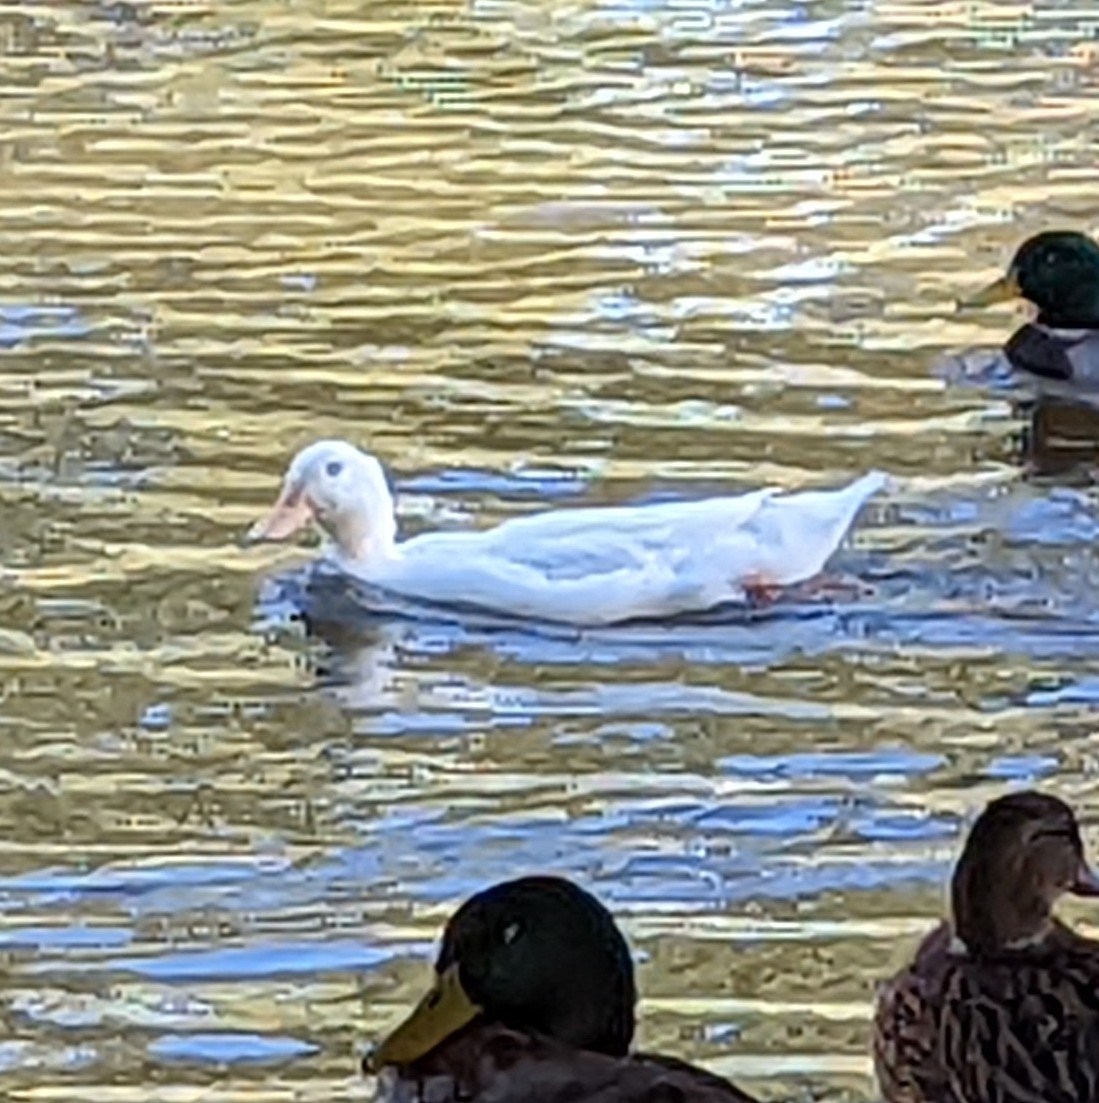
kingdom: Animalia
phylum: Chordata
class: Aves
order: Anseriformes
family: Anatidae
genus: Anas
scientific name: Anas platyrhynchos
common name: Mallard
